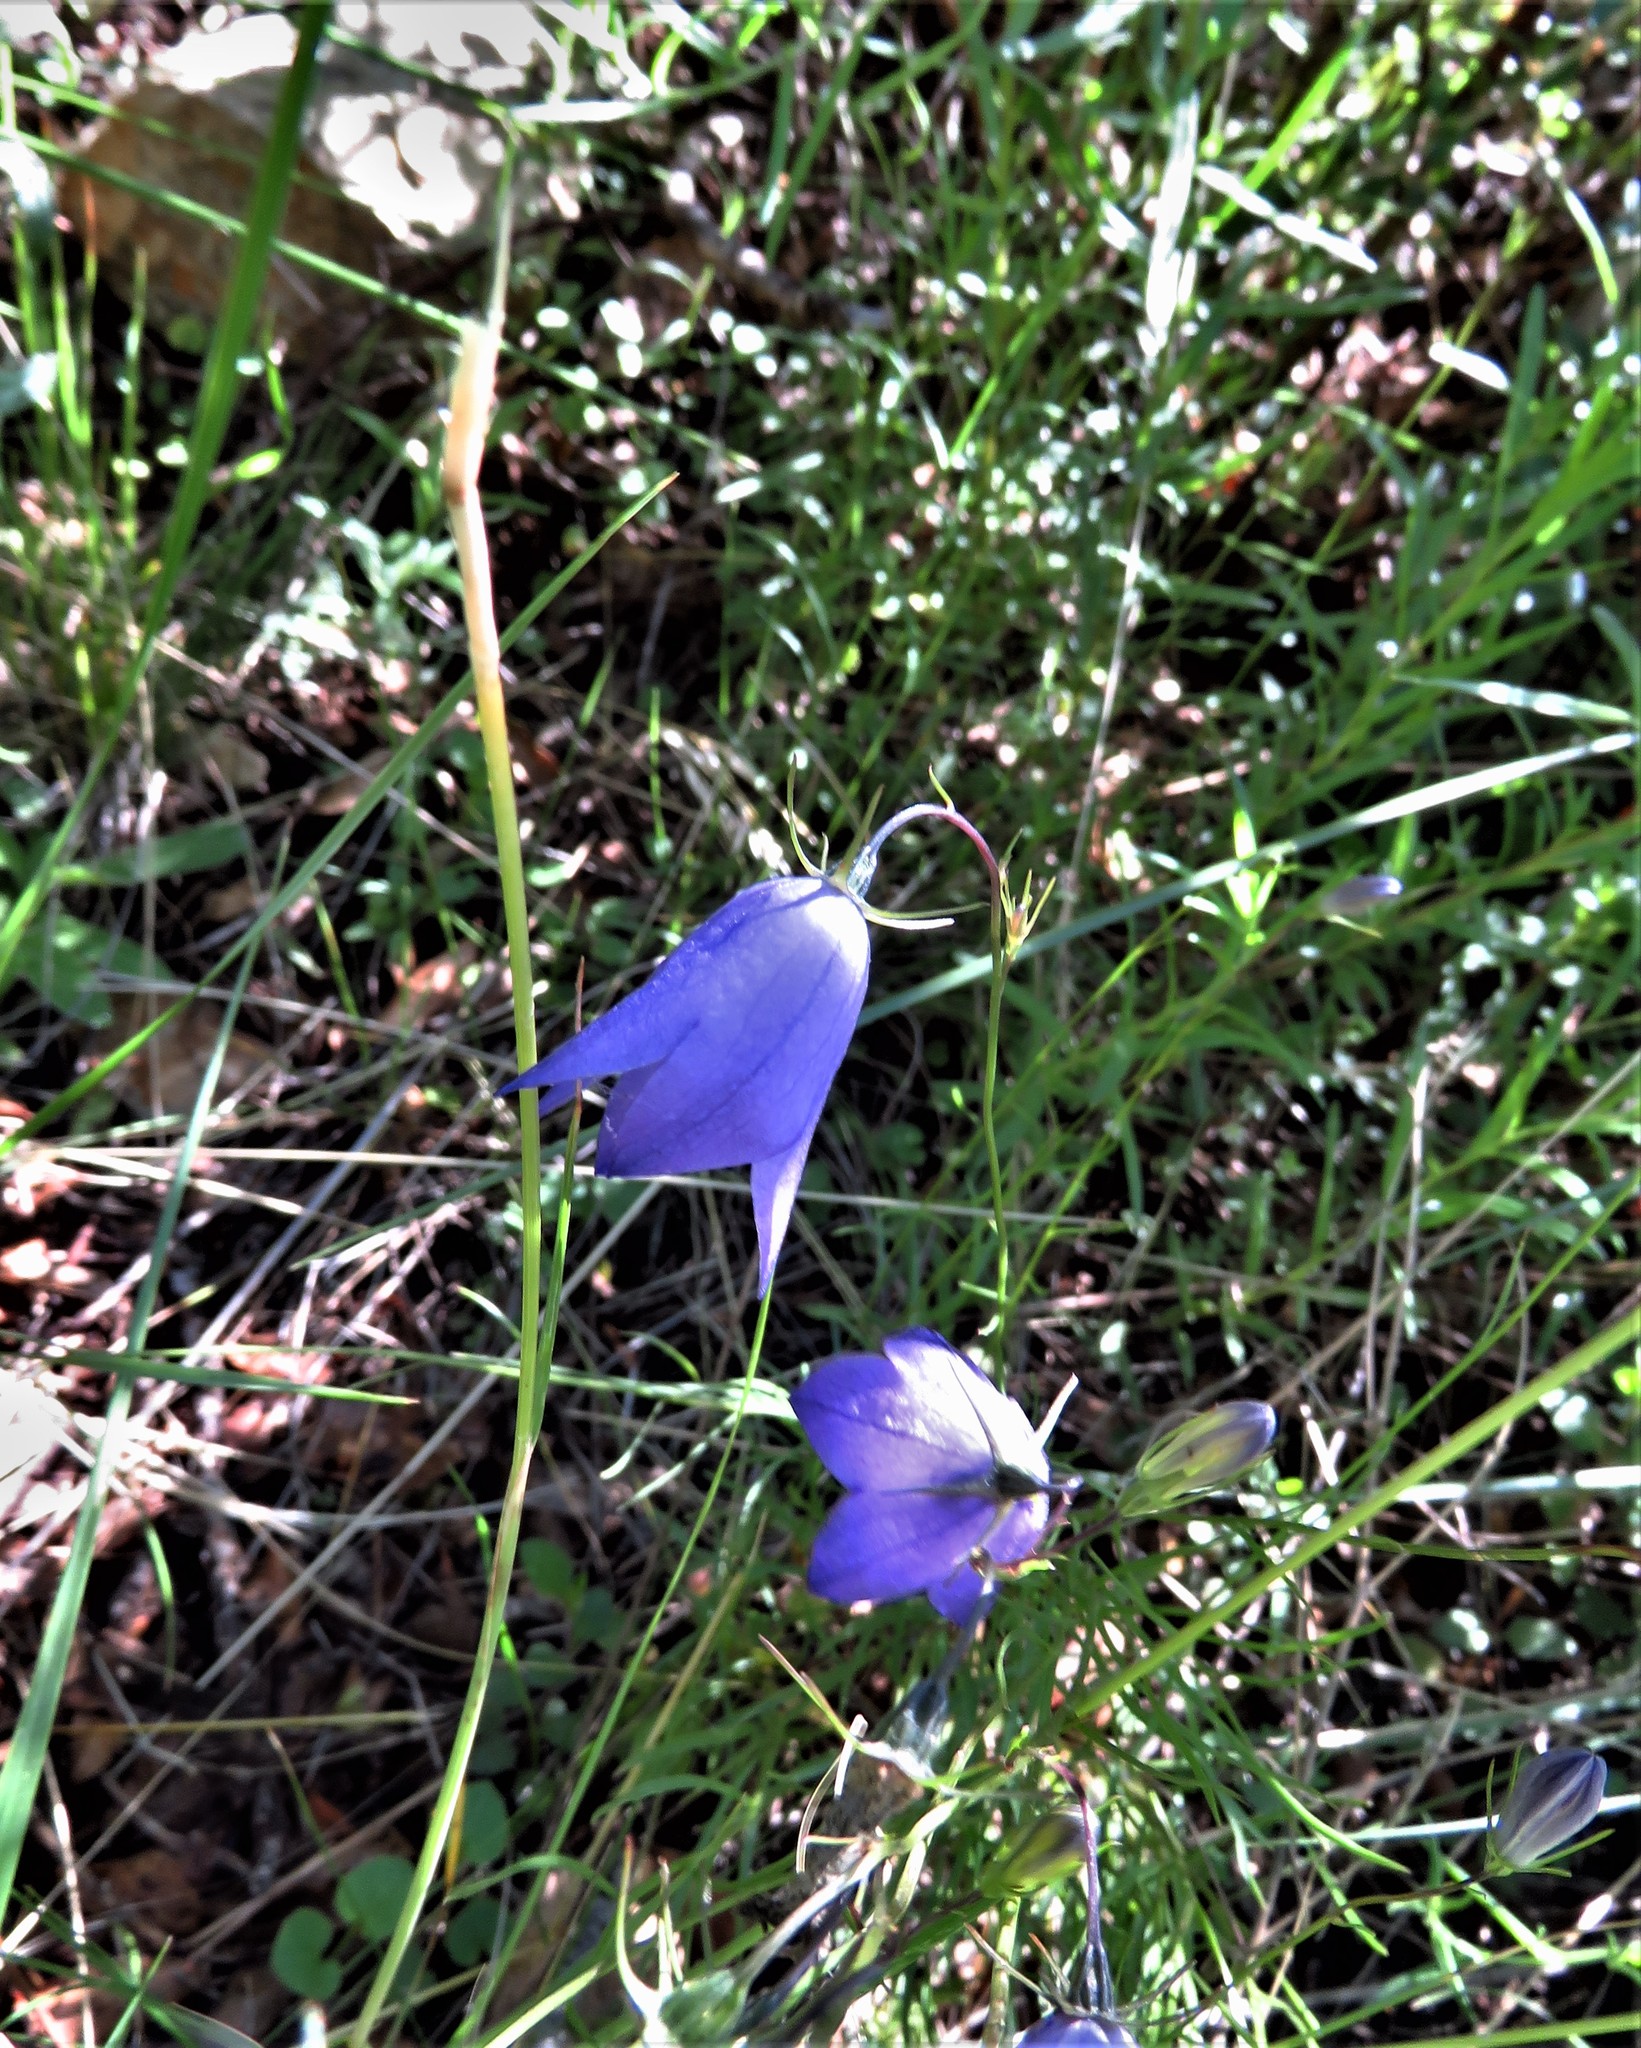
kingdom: Plantae
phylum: Tracheophyta
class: Magnoliopsida
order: Asterales
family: Campanulaceae
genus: Campanula
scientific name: Campanula petiolata
